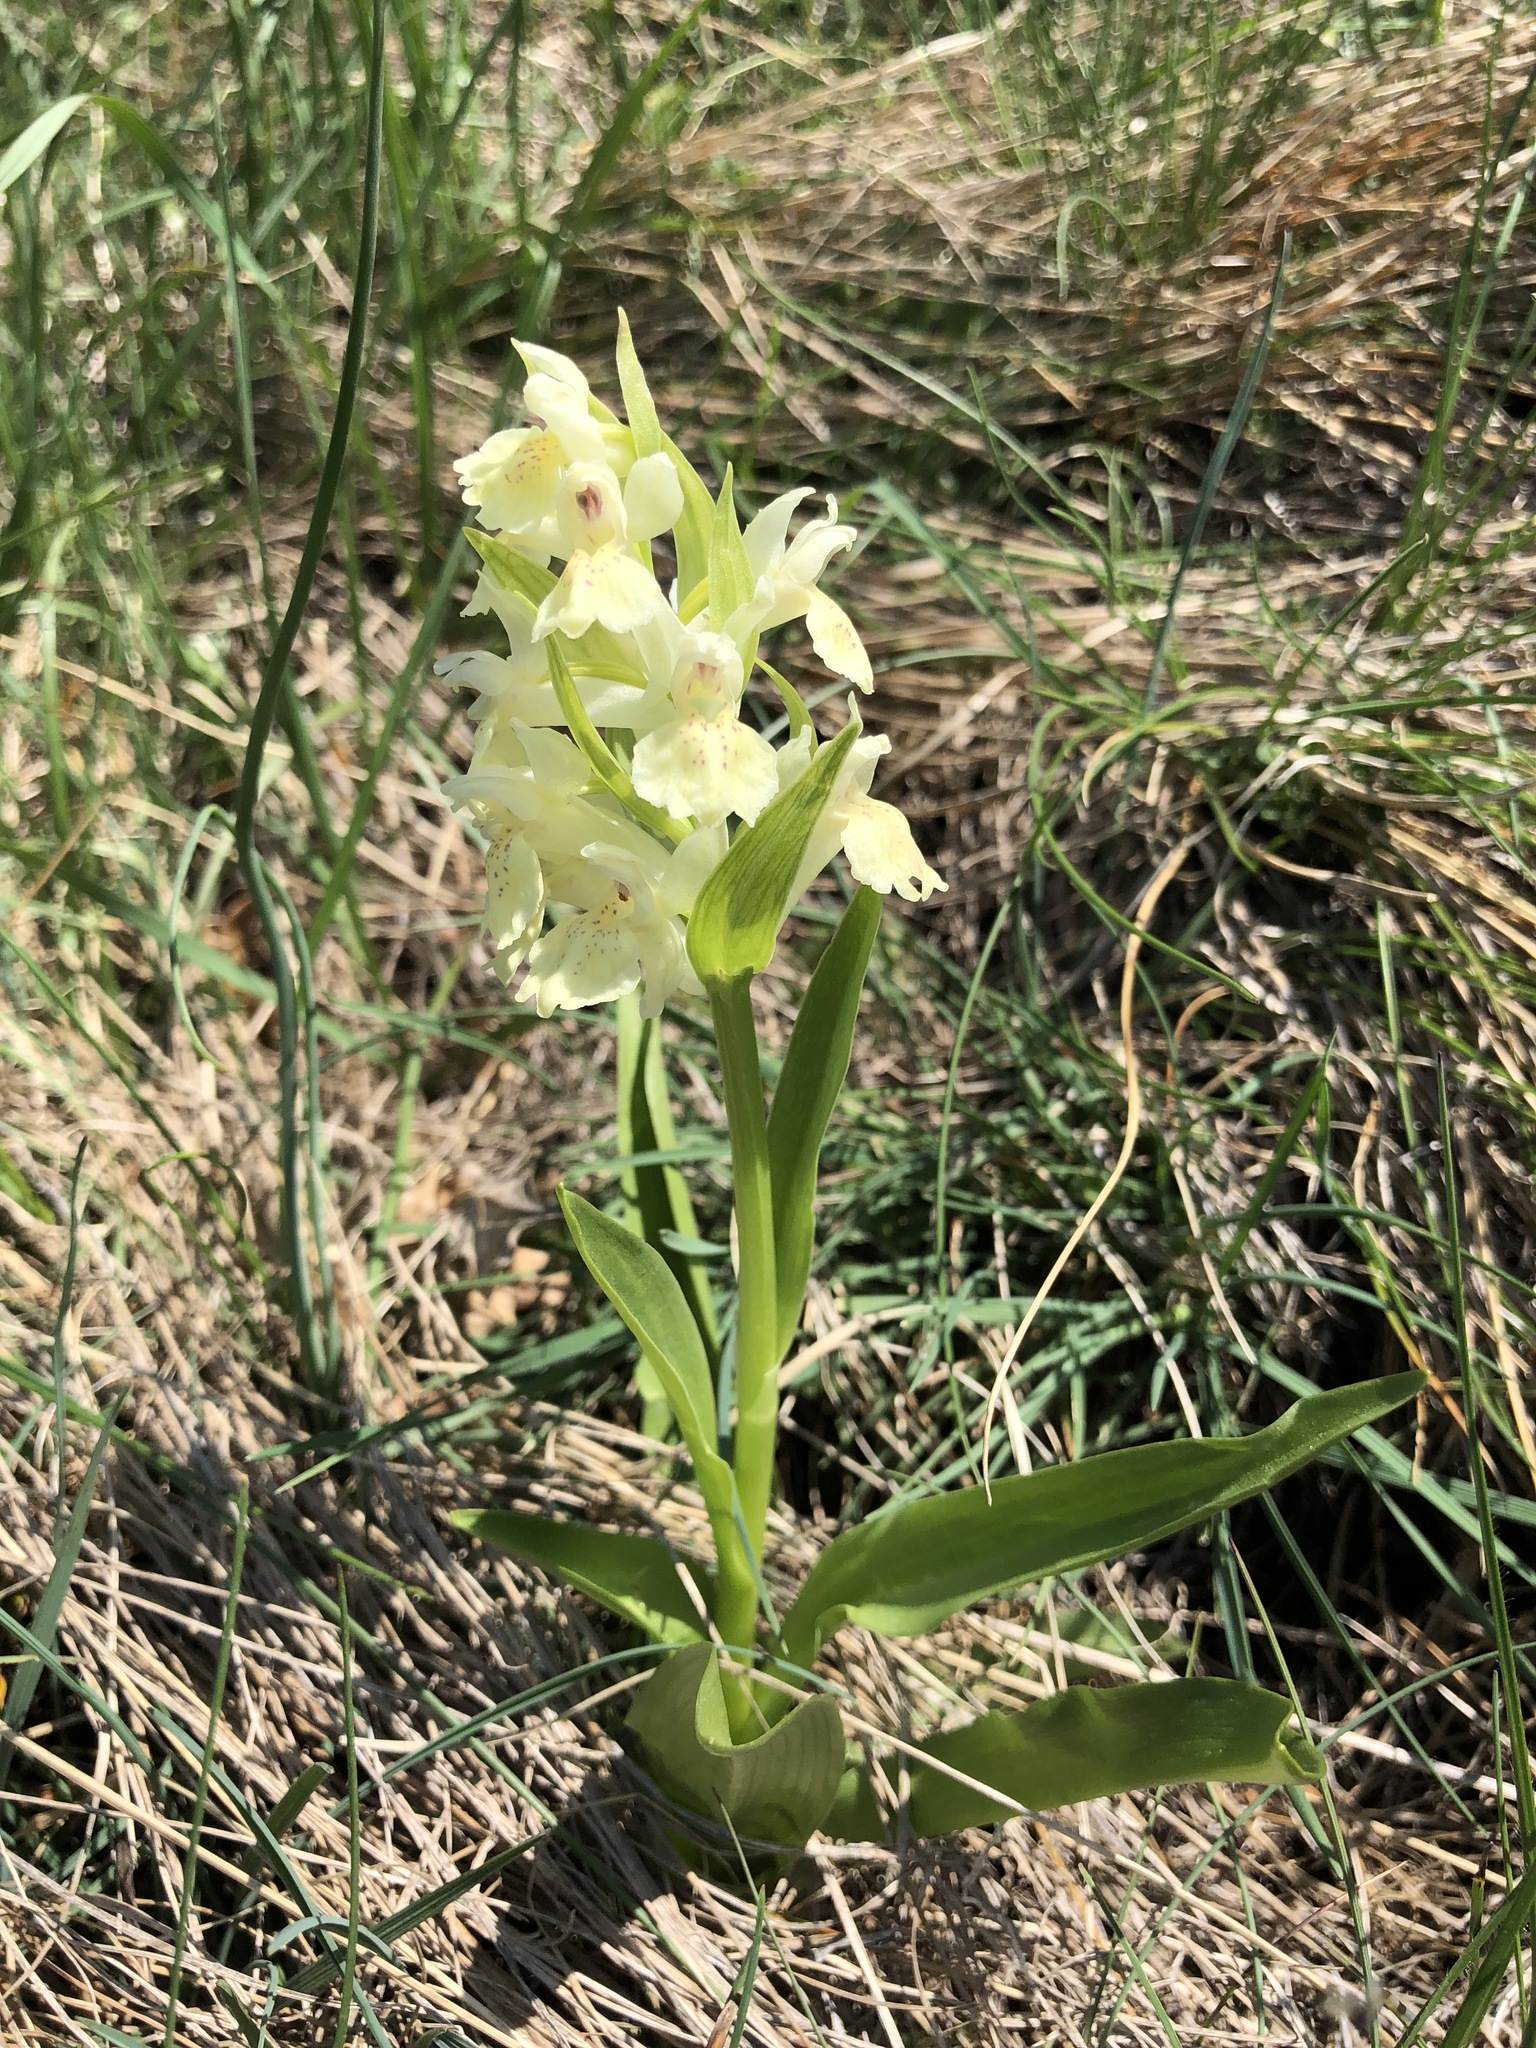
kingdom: Plantae
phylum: Tracheophyta
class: Liliopsida
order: Asparagales
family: Orchidaceae
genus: Dactylorhiza
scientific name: Dactylorhiza sambucina
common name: Elder-flowered orchid
